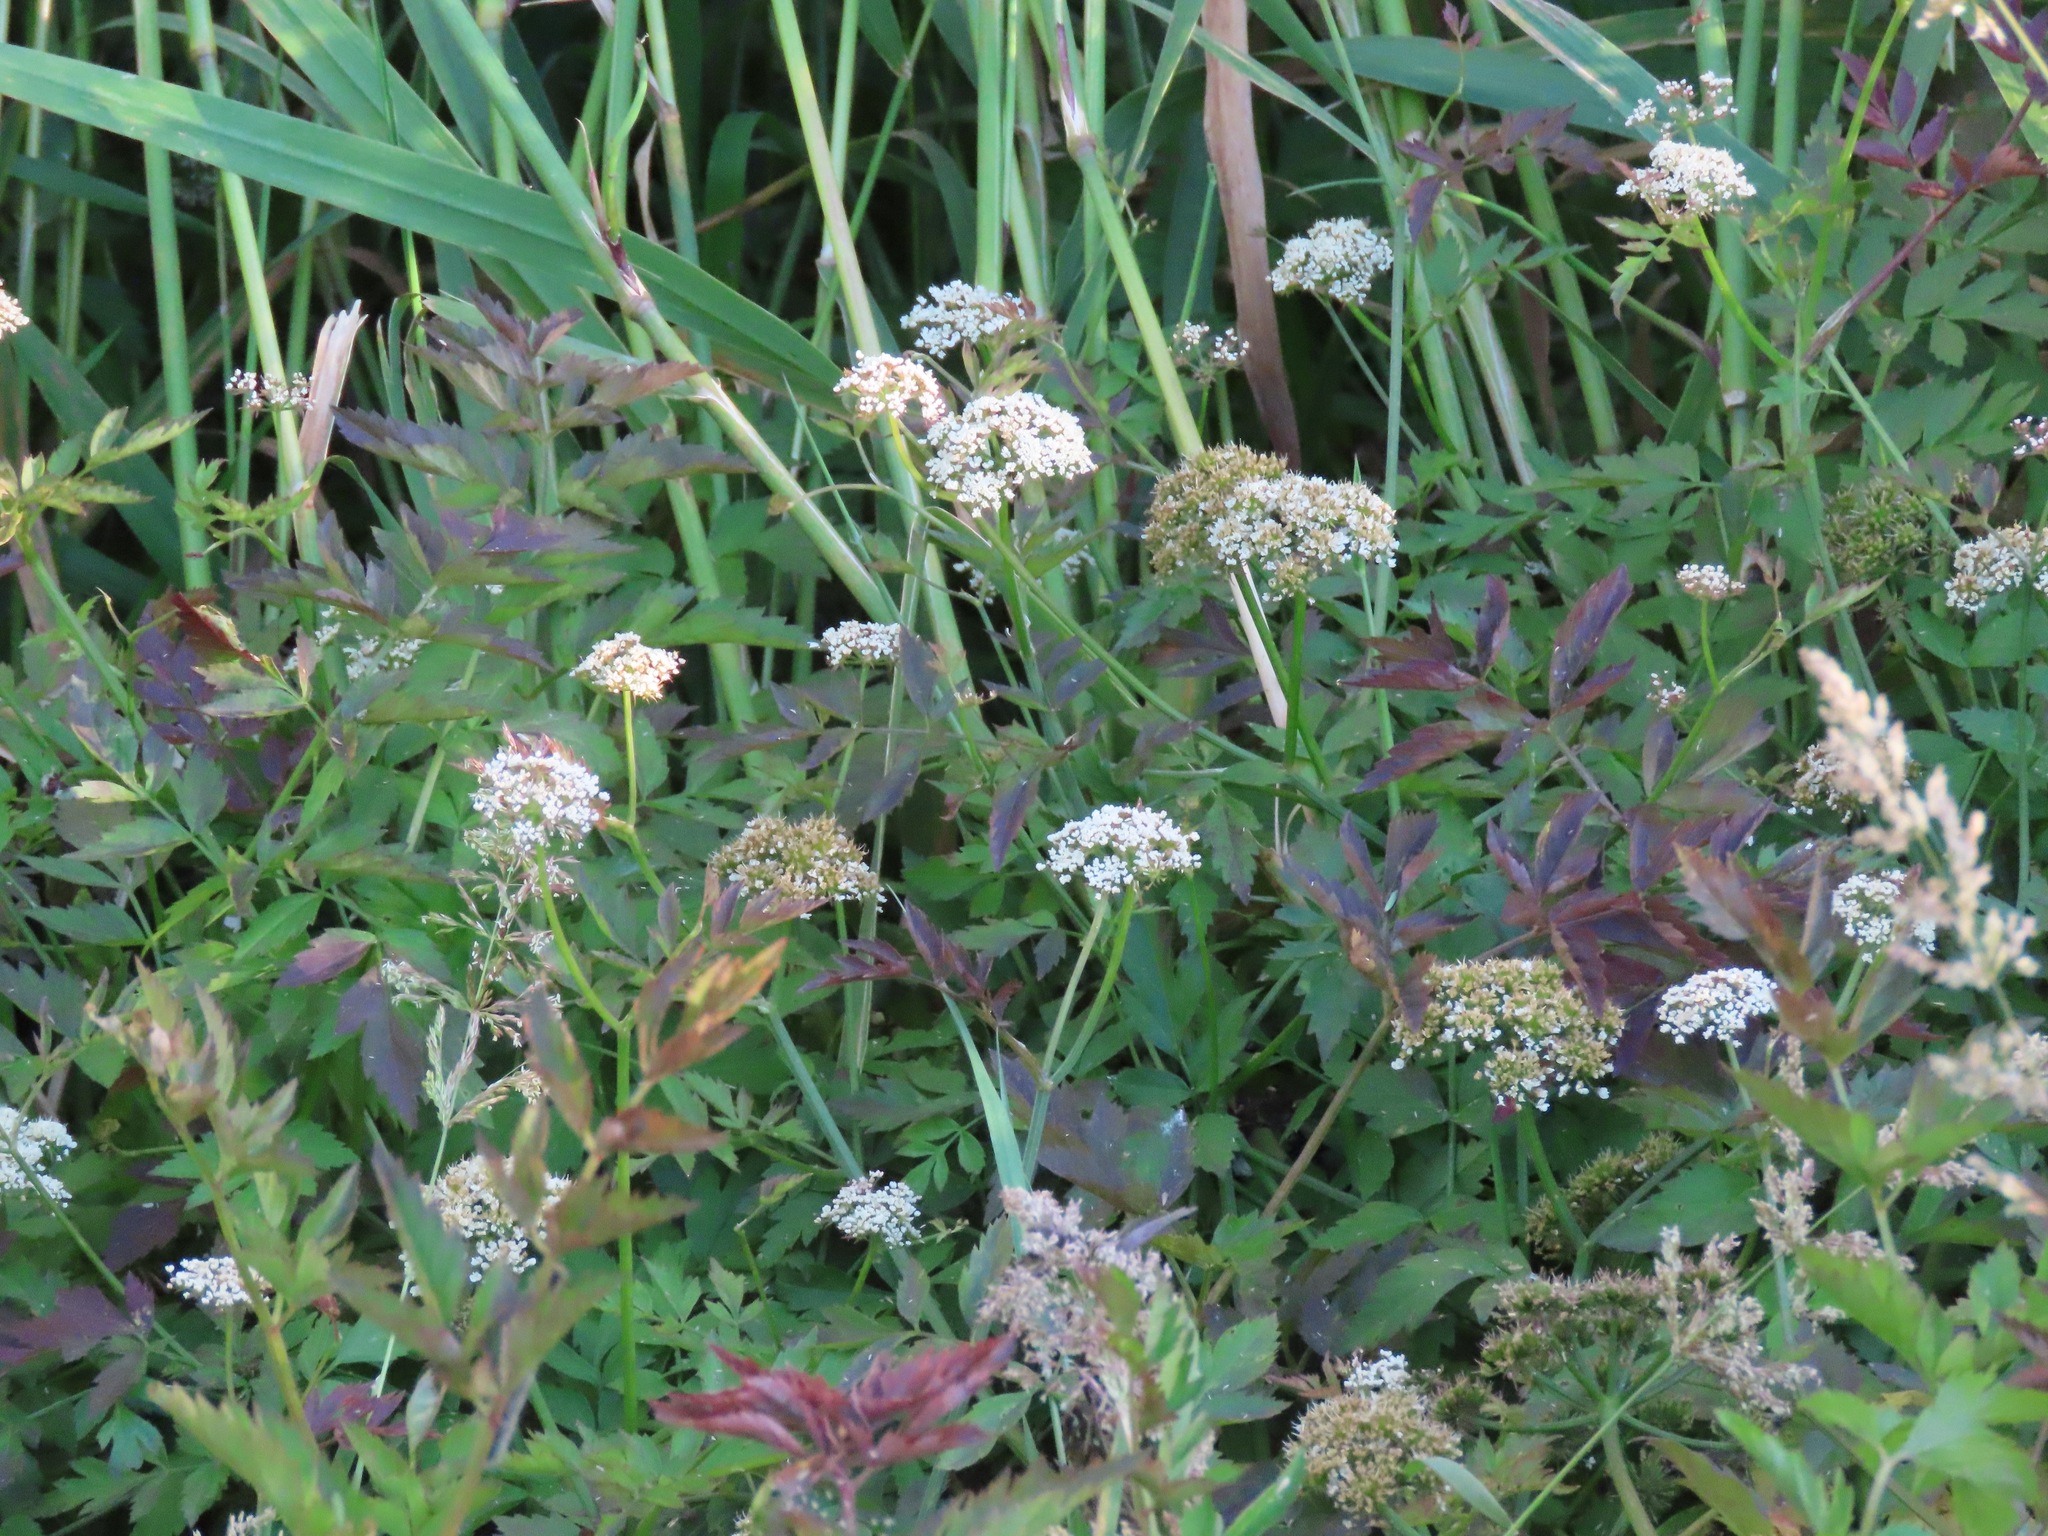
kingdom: Plantae
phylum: Tracheophyta
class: Magnoliopsida
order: Apiales
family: Apiaceae
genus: Oenanthe
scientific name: Oenanthe sarmentosa
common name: American water-parsley
